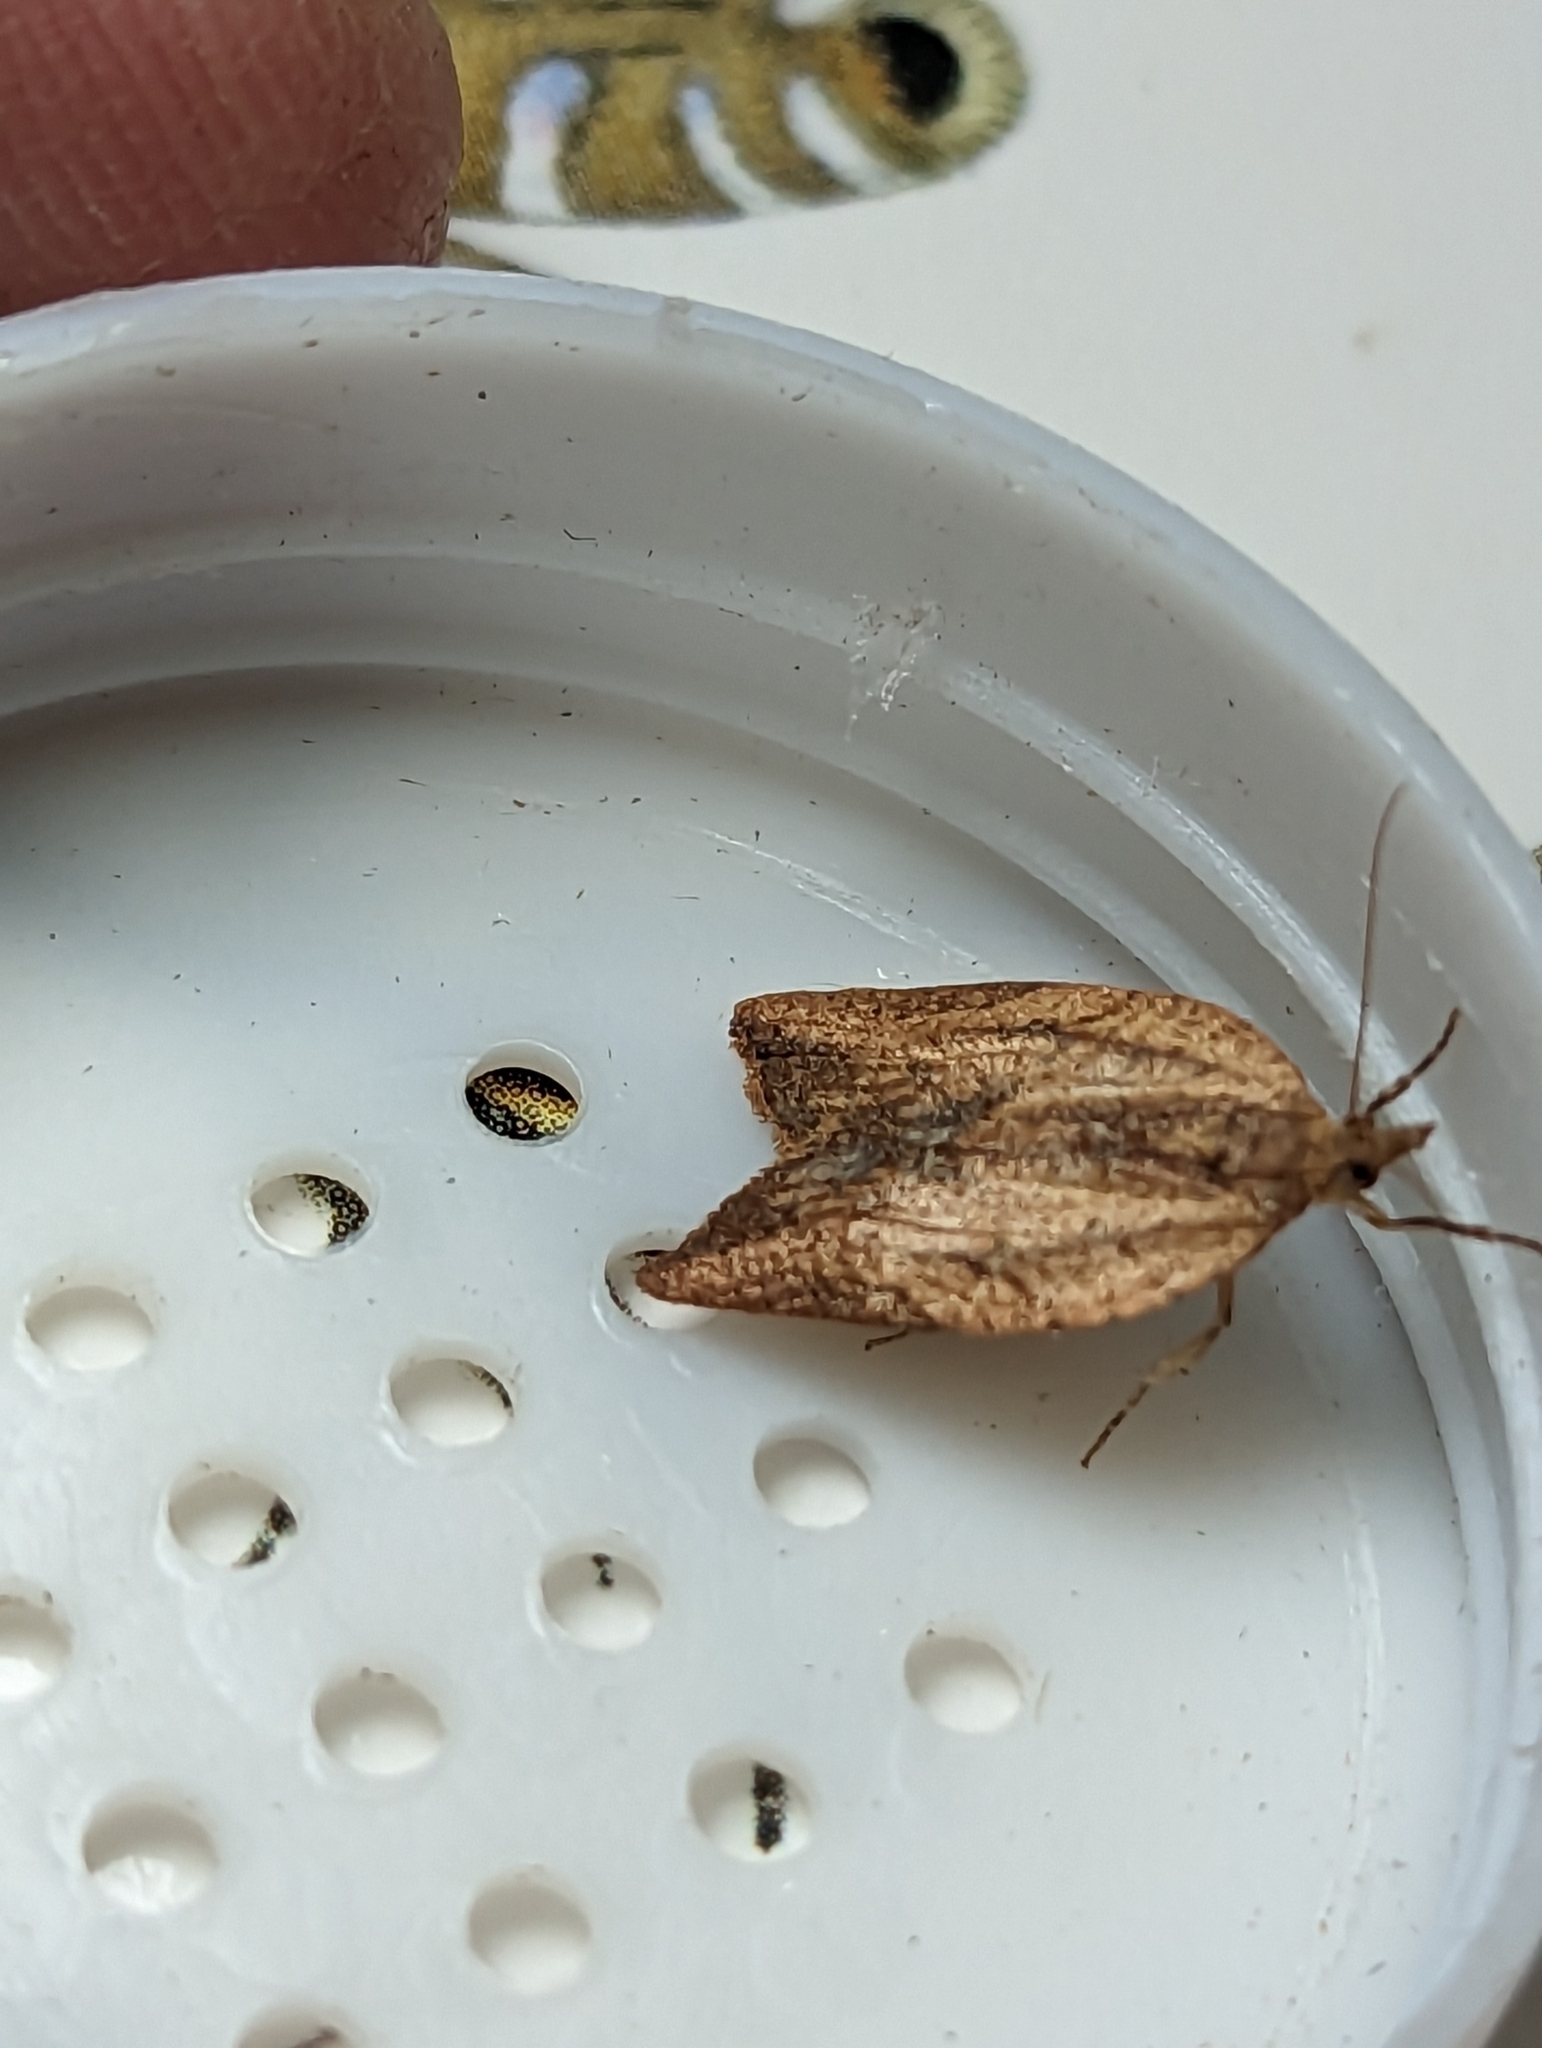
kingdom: Animalia
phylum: Arthropoda
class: Insecta
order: Lepidoptera
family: Tortricidae
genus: Epiphyas
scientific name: Epiphyas postvittana
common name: Light brown apple moth
